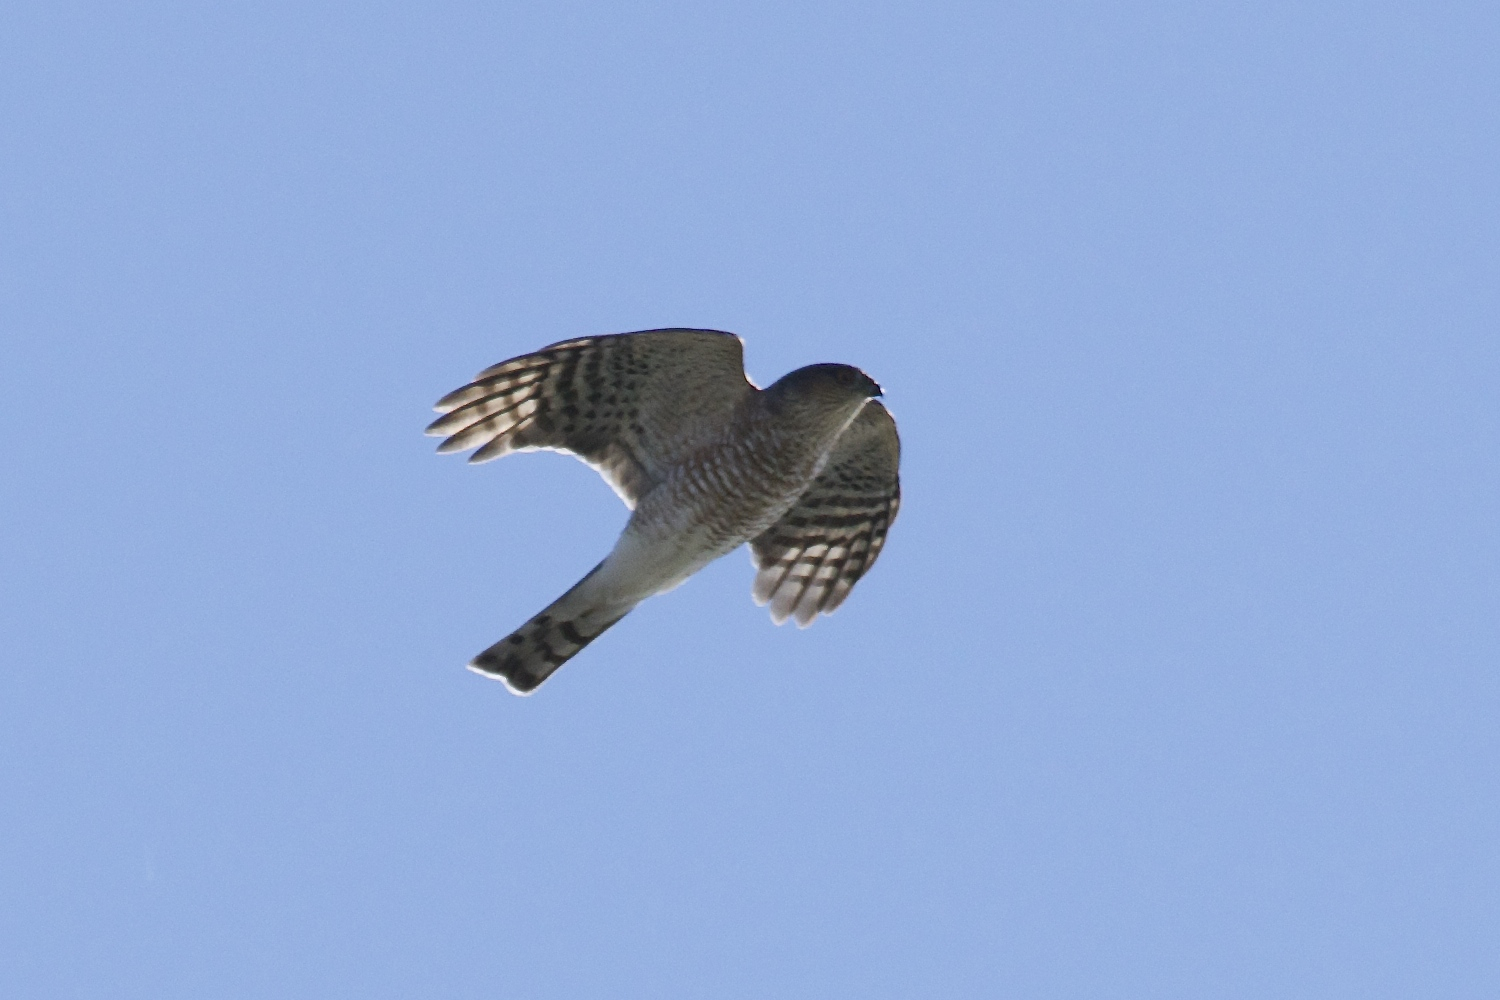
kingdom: Animalia
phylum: Chordata
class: Aves
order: Accipitriformes
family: Accipitridae
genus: Accipiter
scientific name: Accipiter striatus
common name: Sharp-shinned hawk
